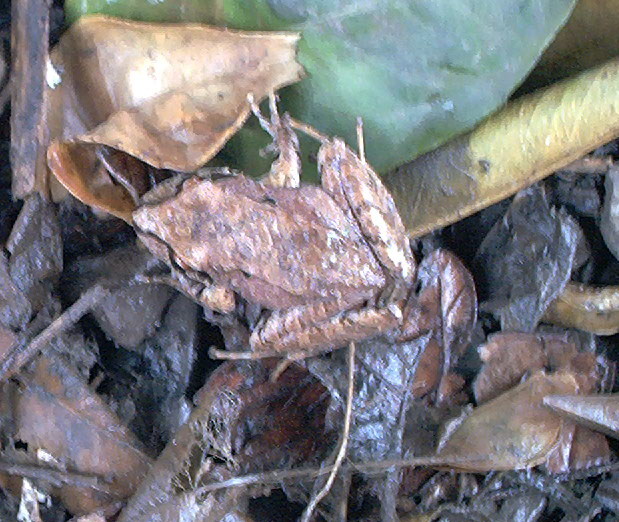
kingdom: Animalia
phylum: Chordata
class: Amphibia
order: Anura
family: Craugastoridae
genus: Yunganastes
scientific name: Yunganastes bisignatus
